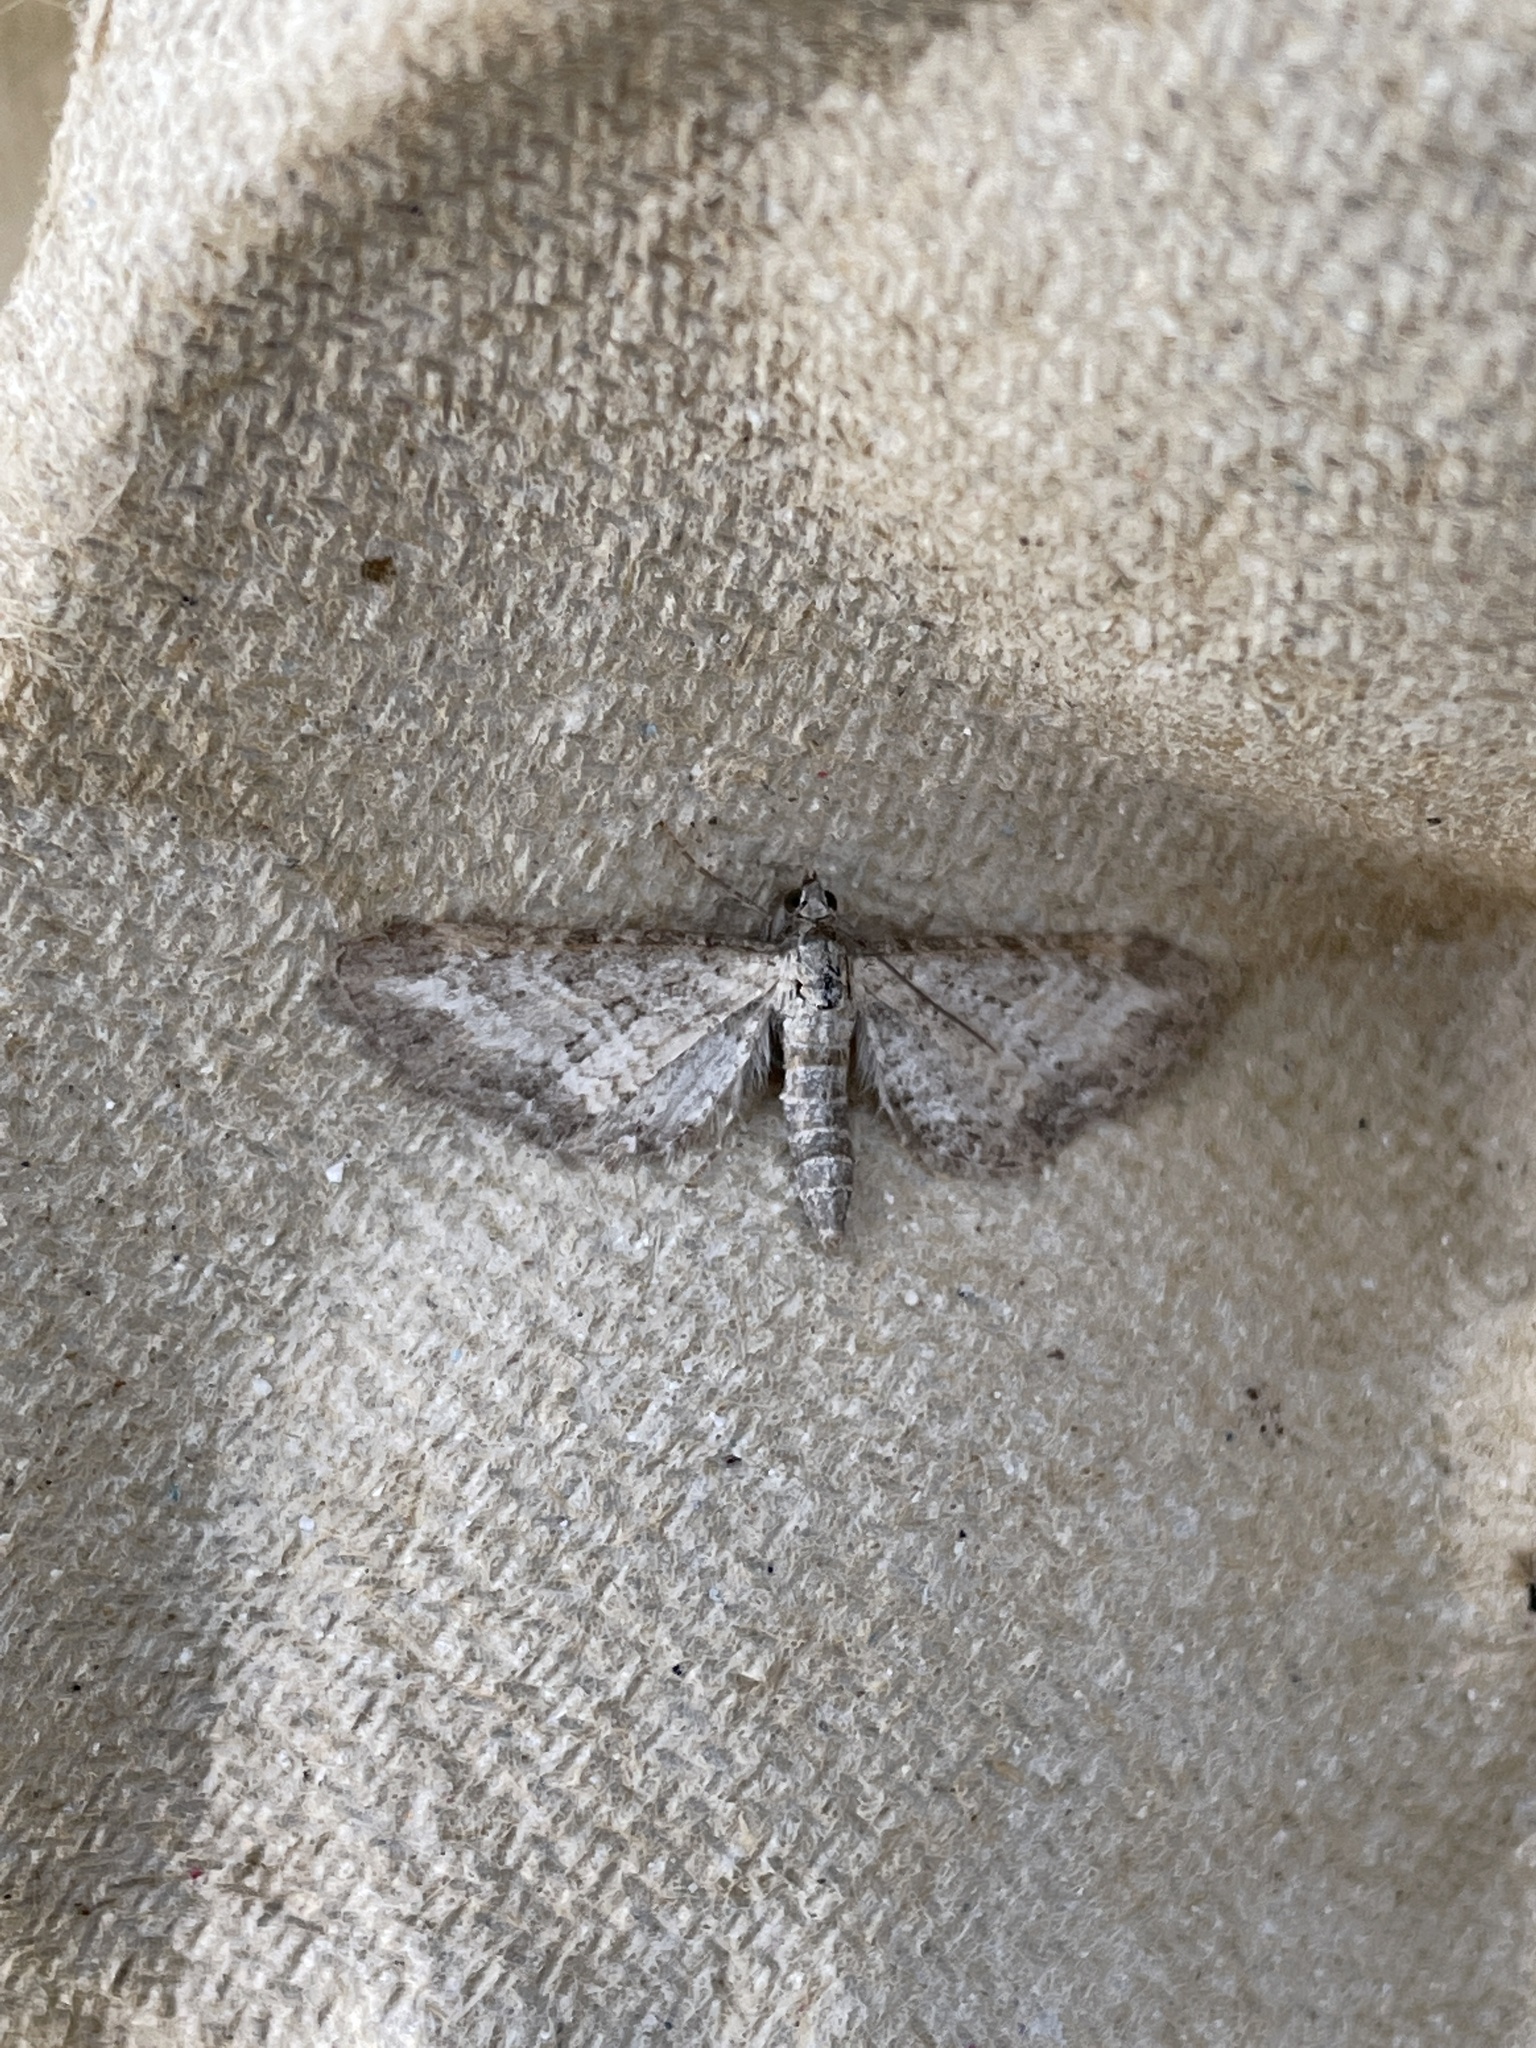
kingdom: Animalia
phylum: Arthropoda
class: Insecta
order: Lepidoptera
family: Geometridae
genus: Eupithecia
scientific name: Eupithecia subumbrata
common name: Shaded pug
